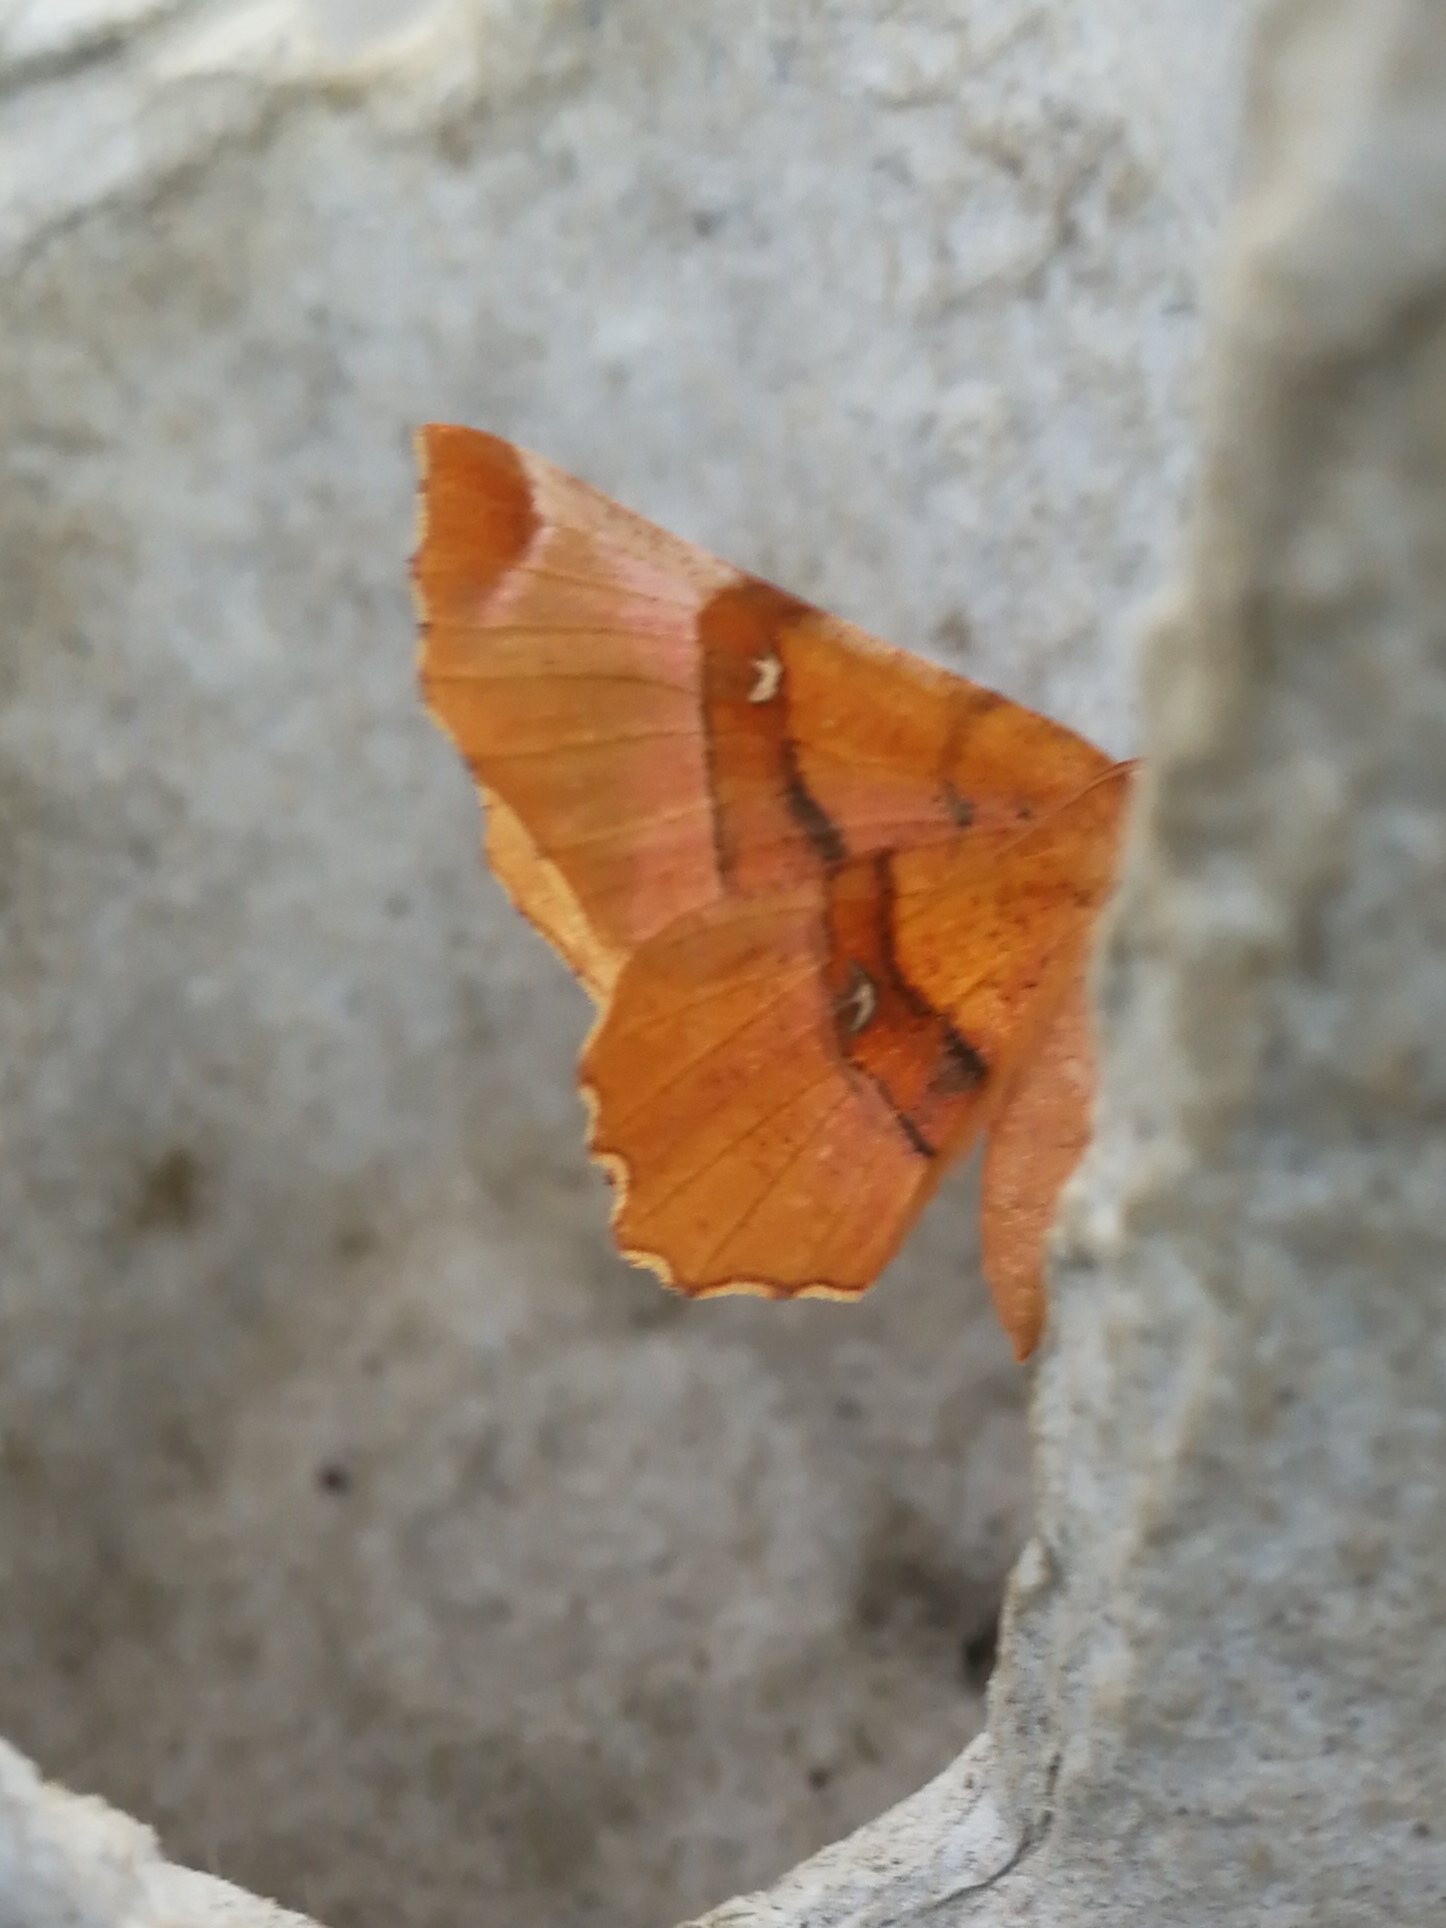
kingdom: Animalia
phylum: Arthropoda
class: Insecta
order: Lepidoptera
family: Geometridae
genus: Selenia
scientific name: Selenia lunularia
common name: Lunar thorn
